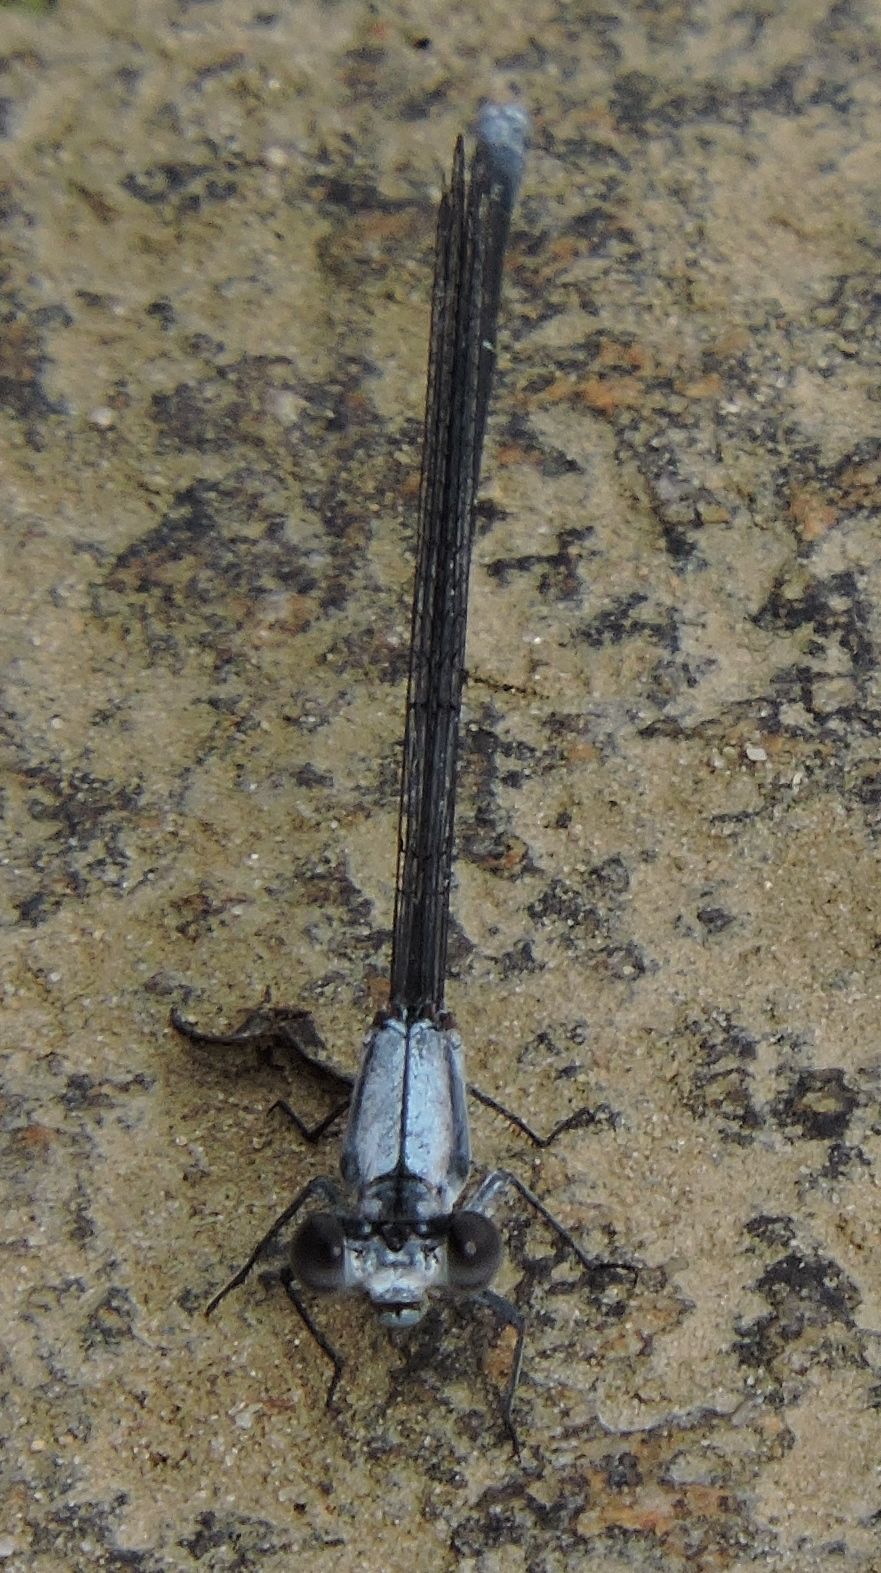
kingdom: Animalia
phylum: Arthropoda
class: Insecta
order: Odonata
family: Coenagrionidae
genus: Argia
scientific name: Argia moesta
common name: Powdered dancer
